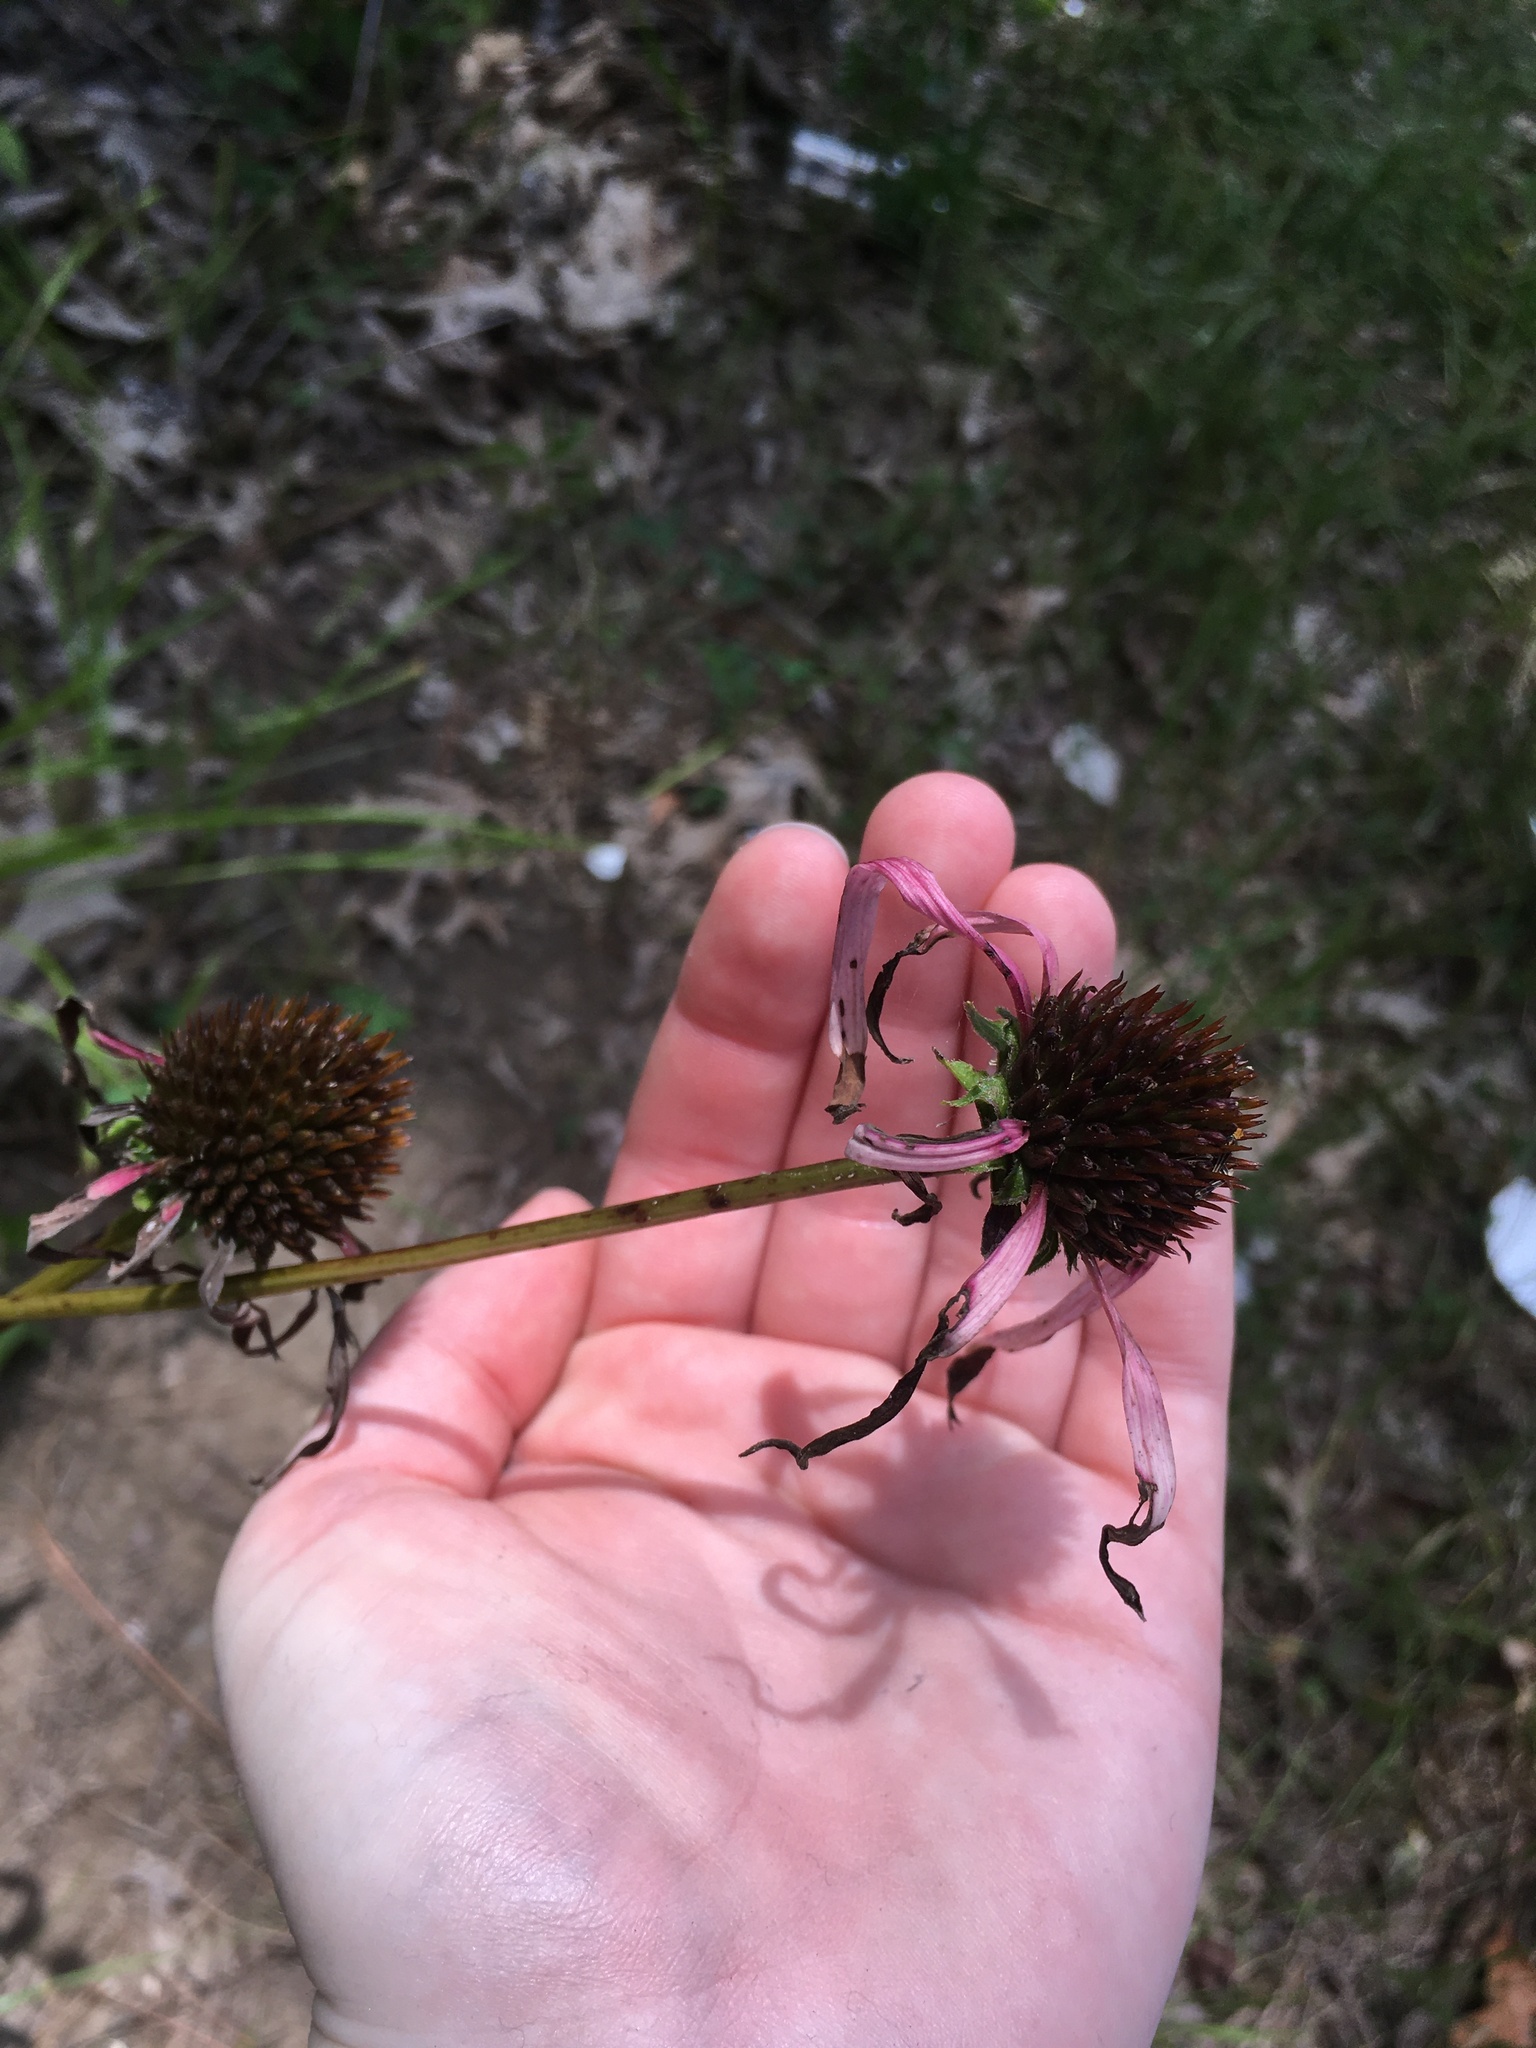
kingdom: Plantae
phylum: Tracheophyta
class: Magnoliopsida
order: Asterales
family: Asteraceae
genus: Echinacea
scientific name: Echinacea laevigata
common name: Smooth coneflower
